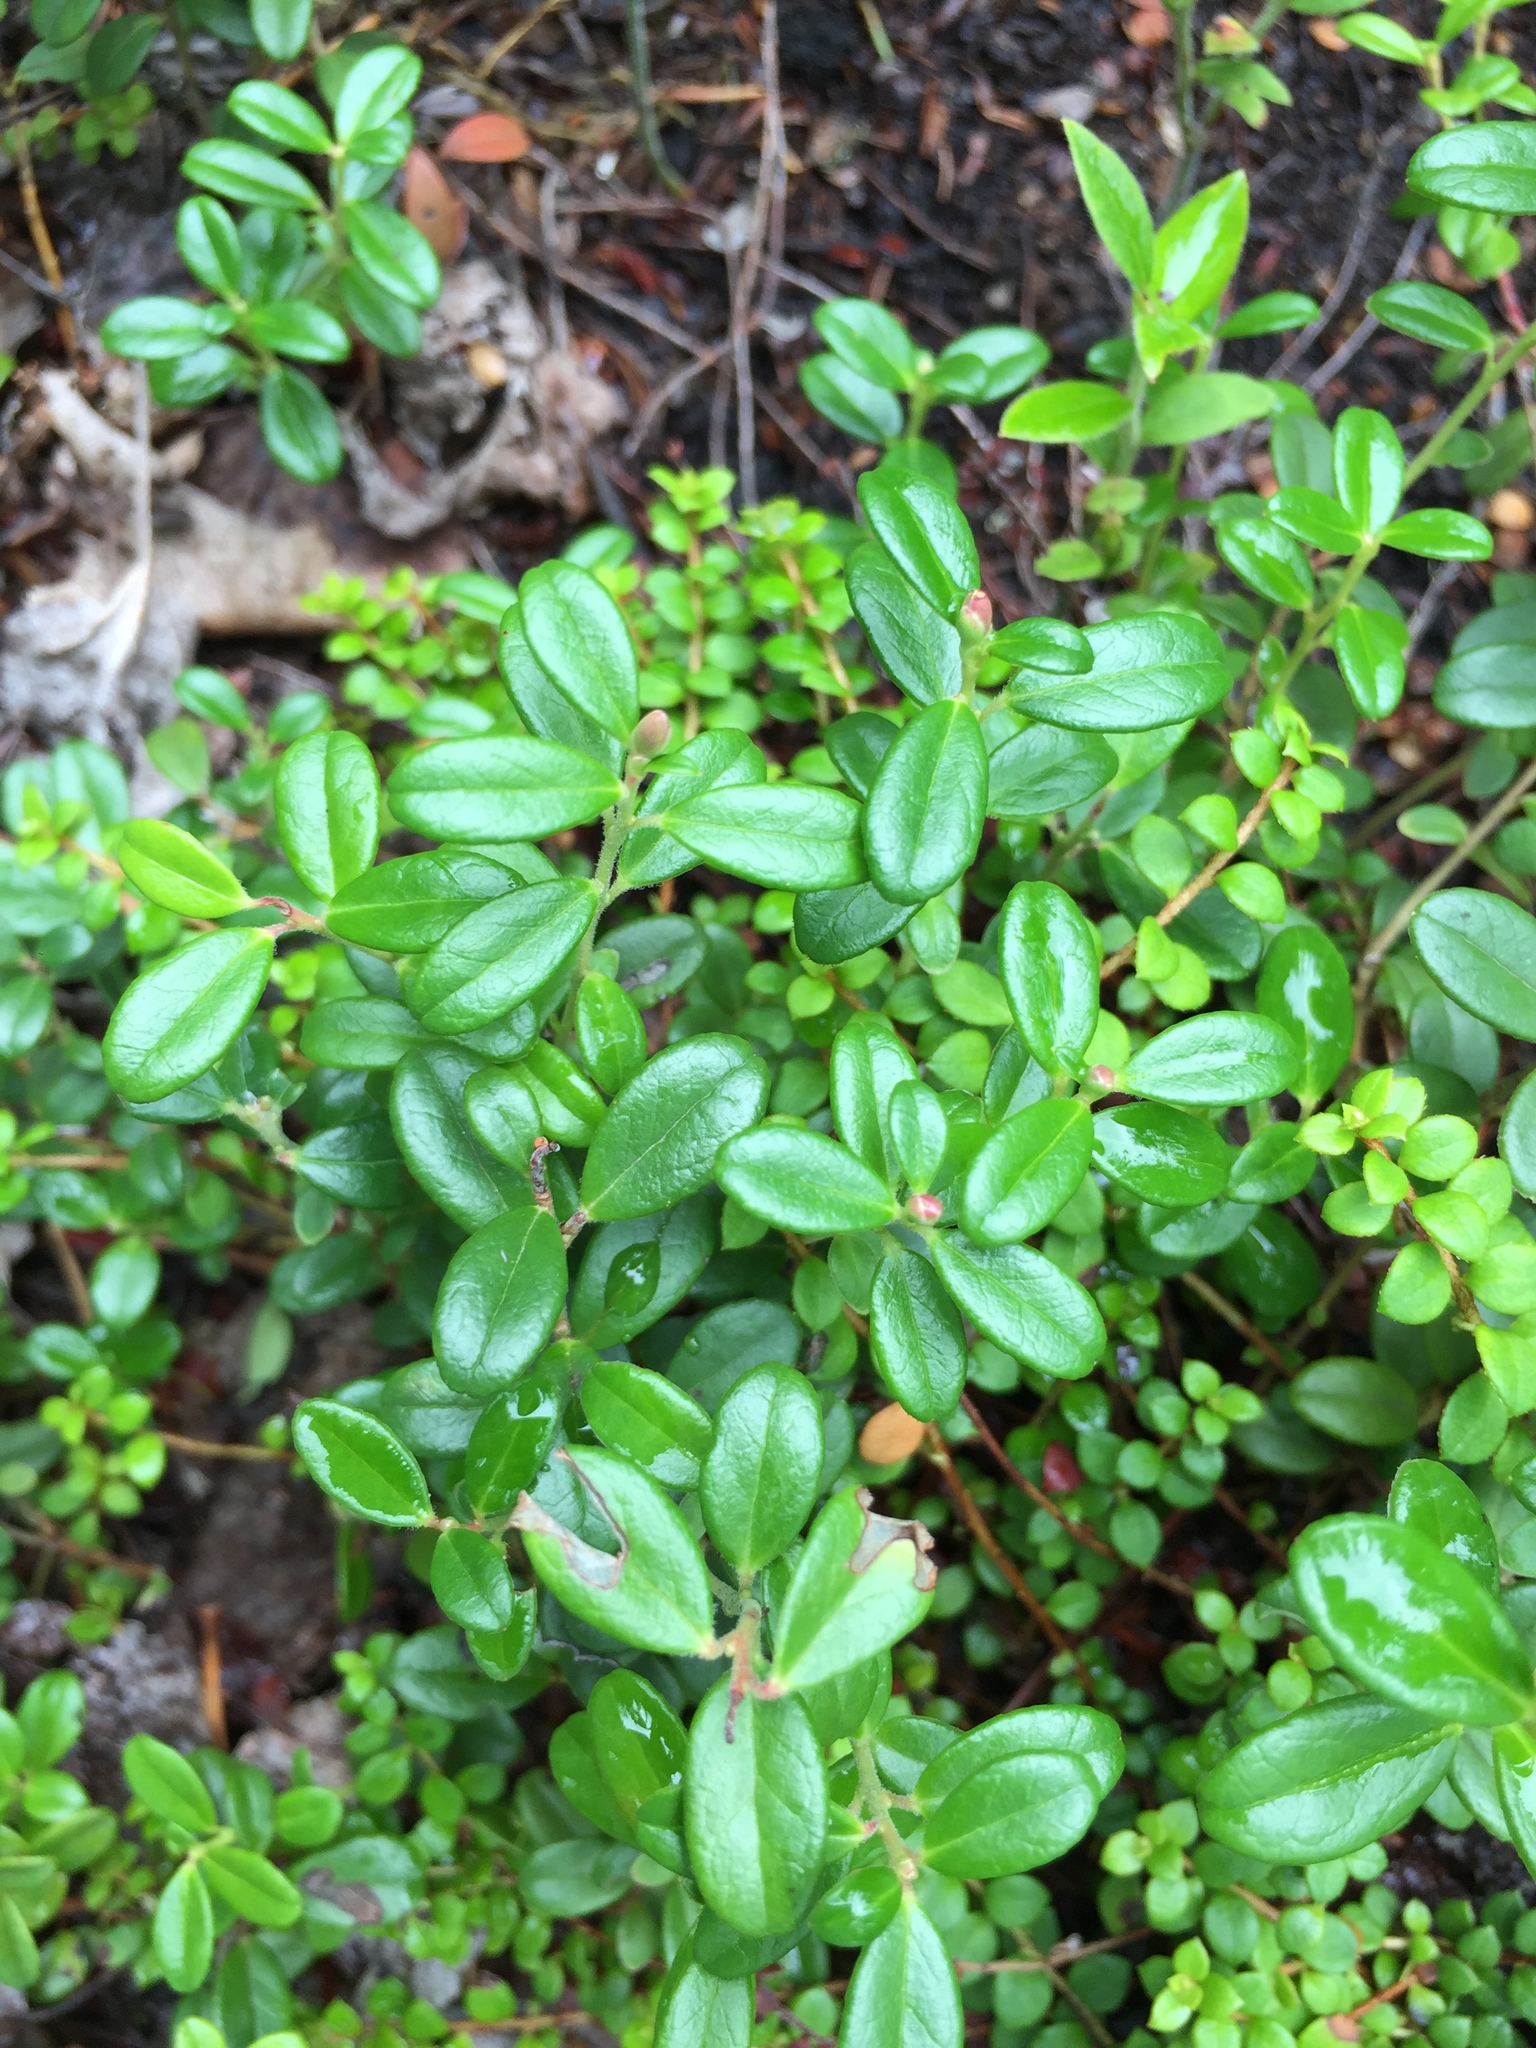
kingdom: Plantae
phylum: Tracheophyta
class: Magnoliopsida
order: Ericales
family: Ericaceae
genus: Vaccinium
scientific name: Vaccinium vitis-idaea
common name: Cowberry
